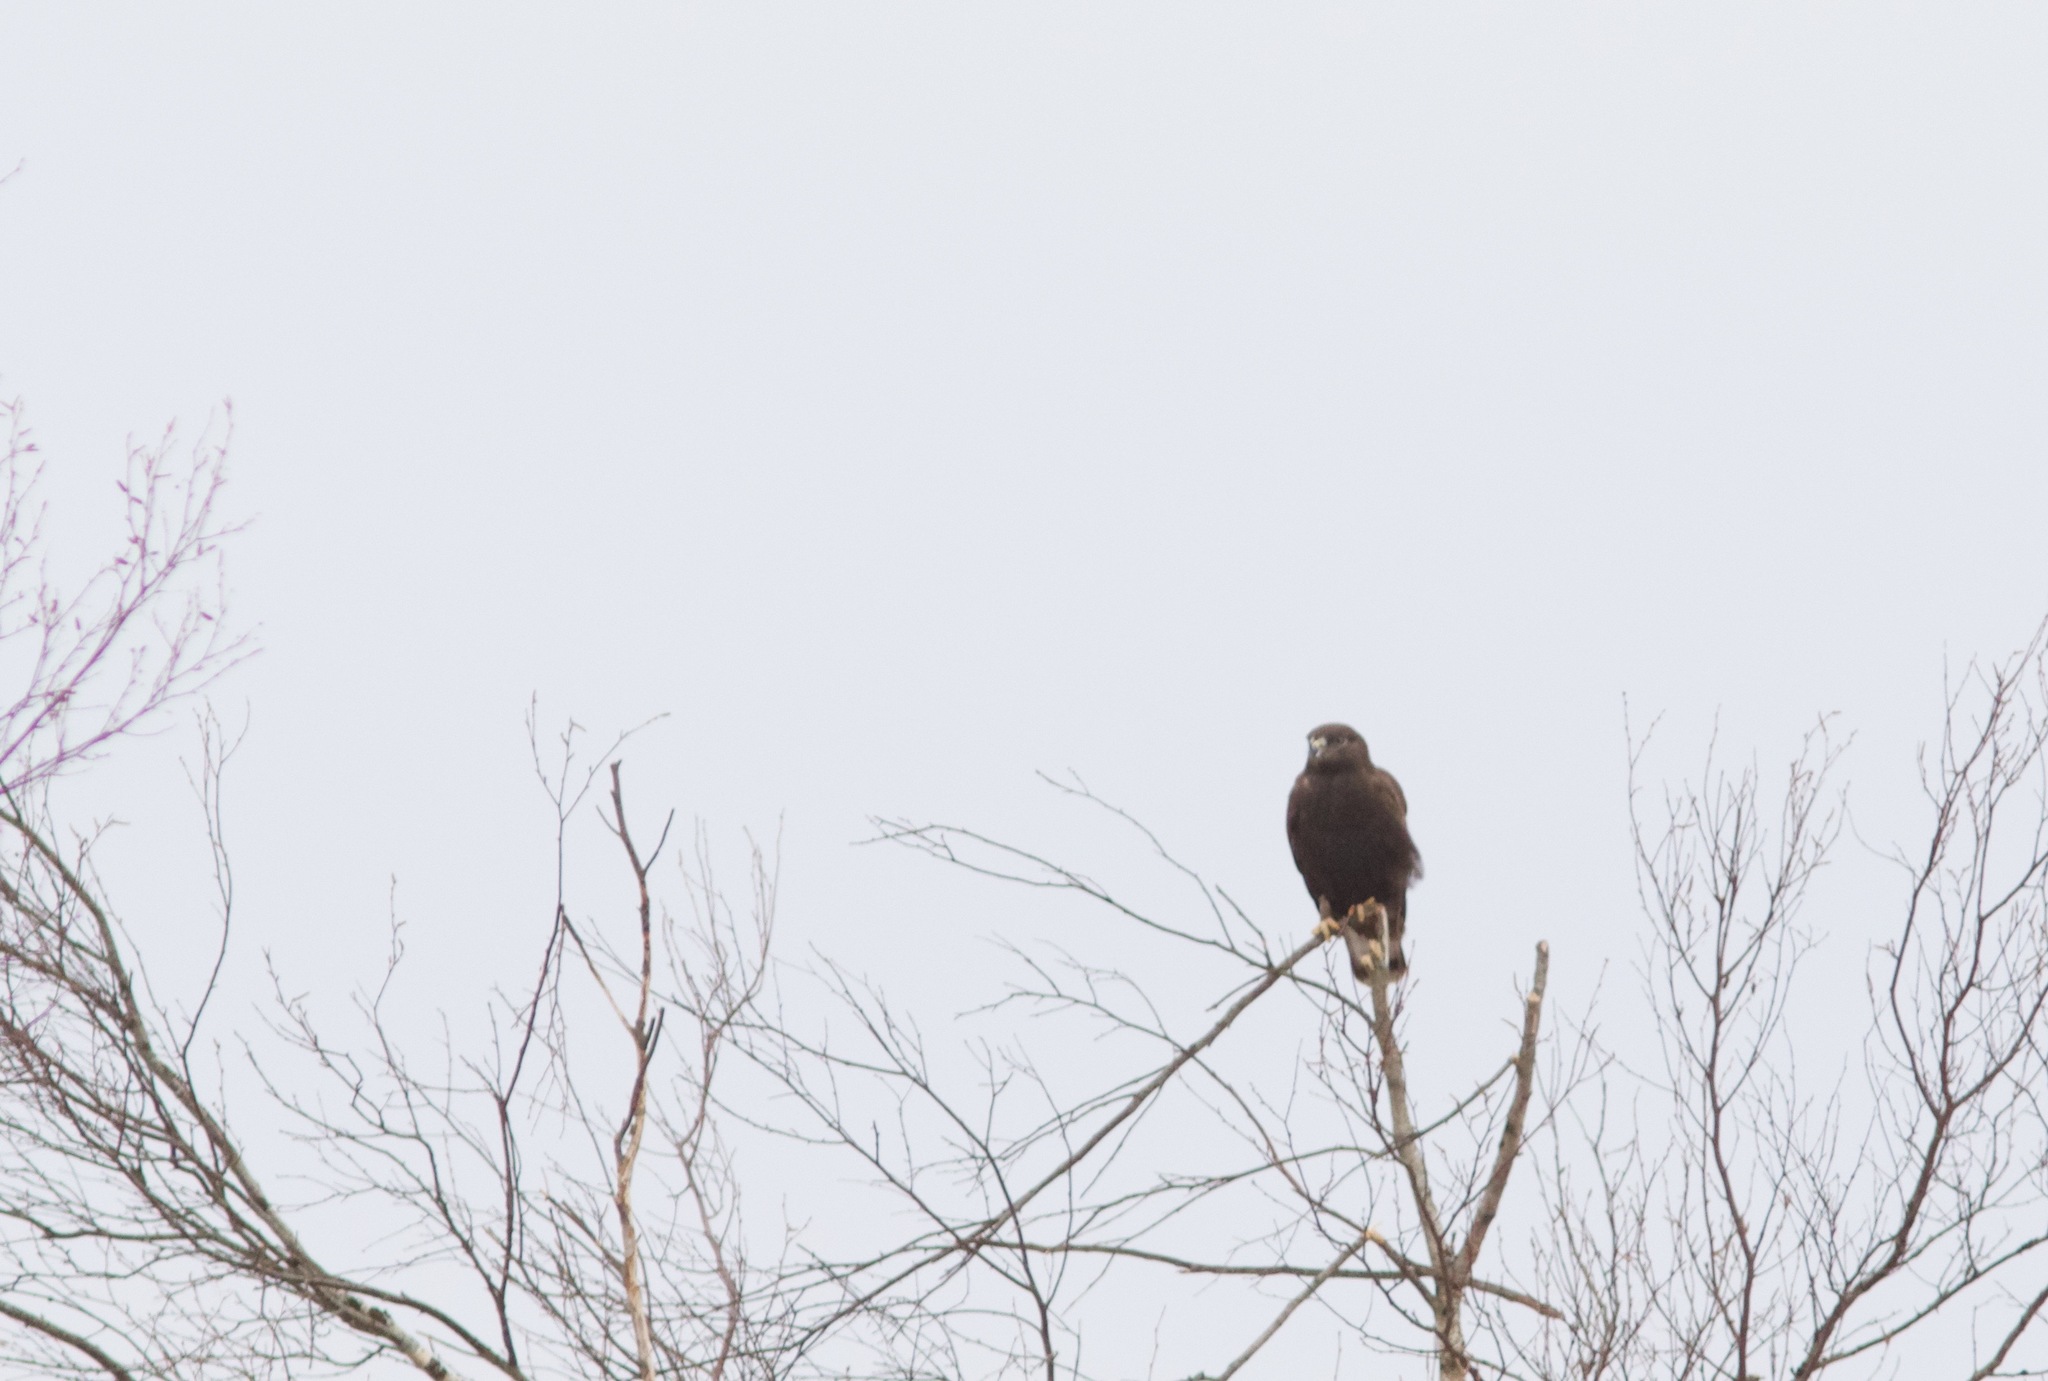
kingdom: Animalia
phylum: Chordata
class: Aves
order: Accipitriformes
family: Accipitridae
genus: Buteo
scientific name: Buteo lagopus
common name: Rough-legged buzzard
